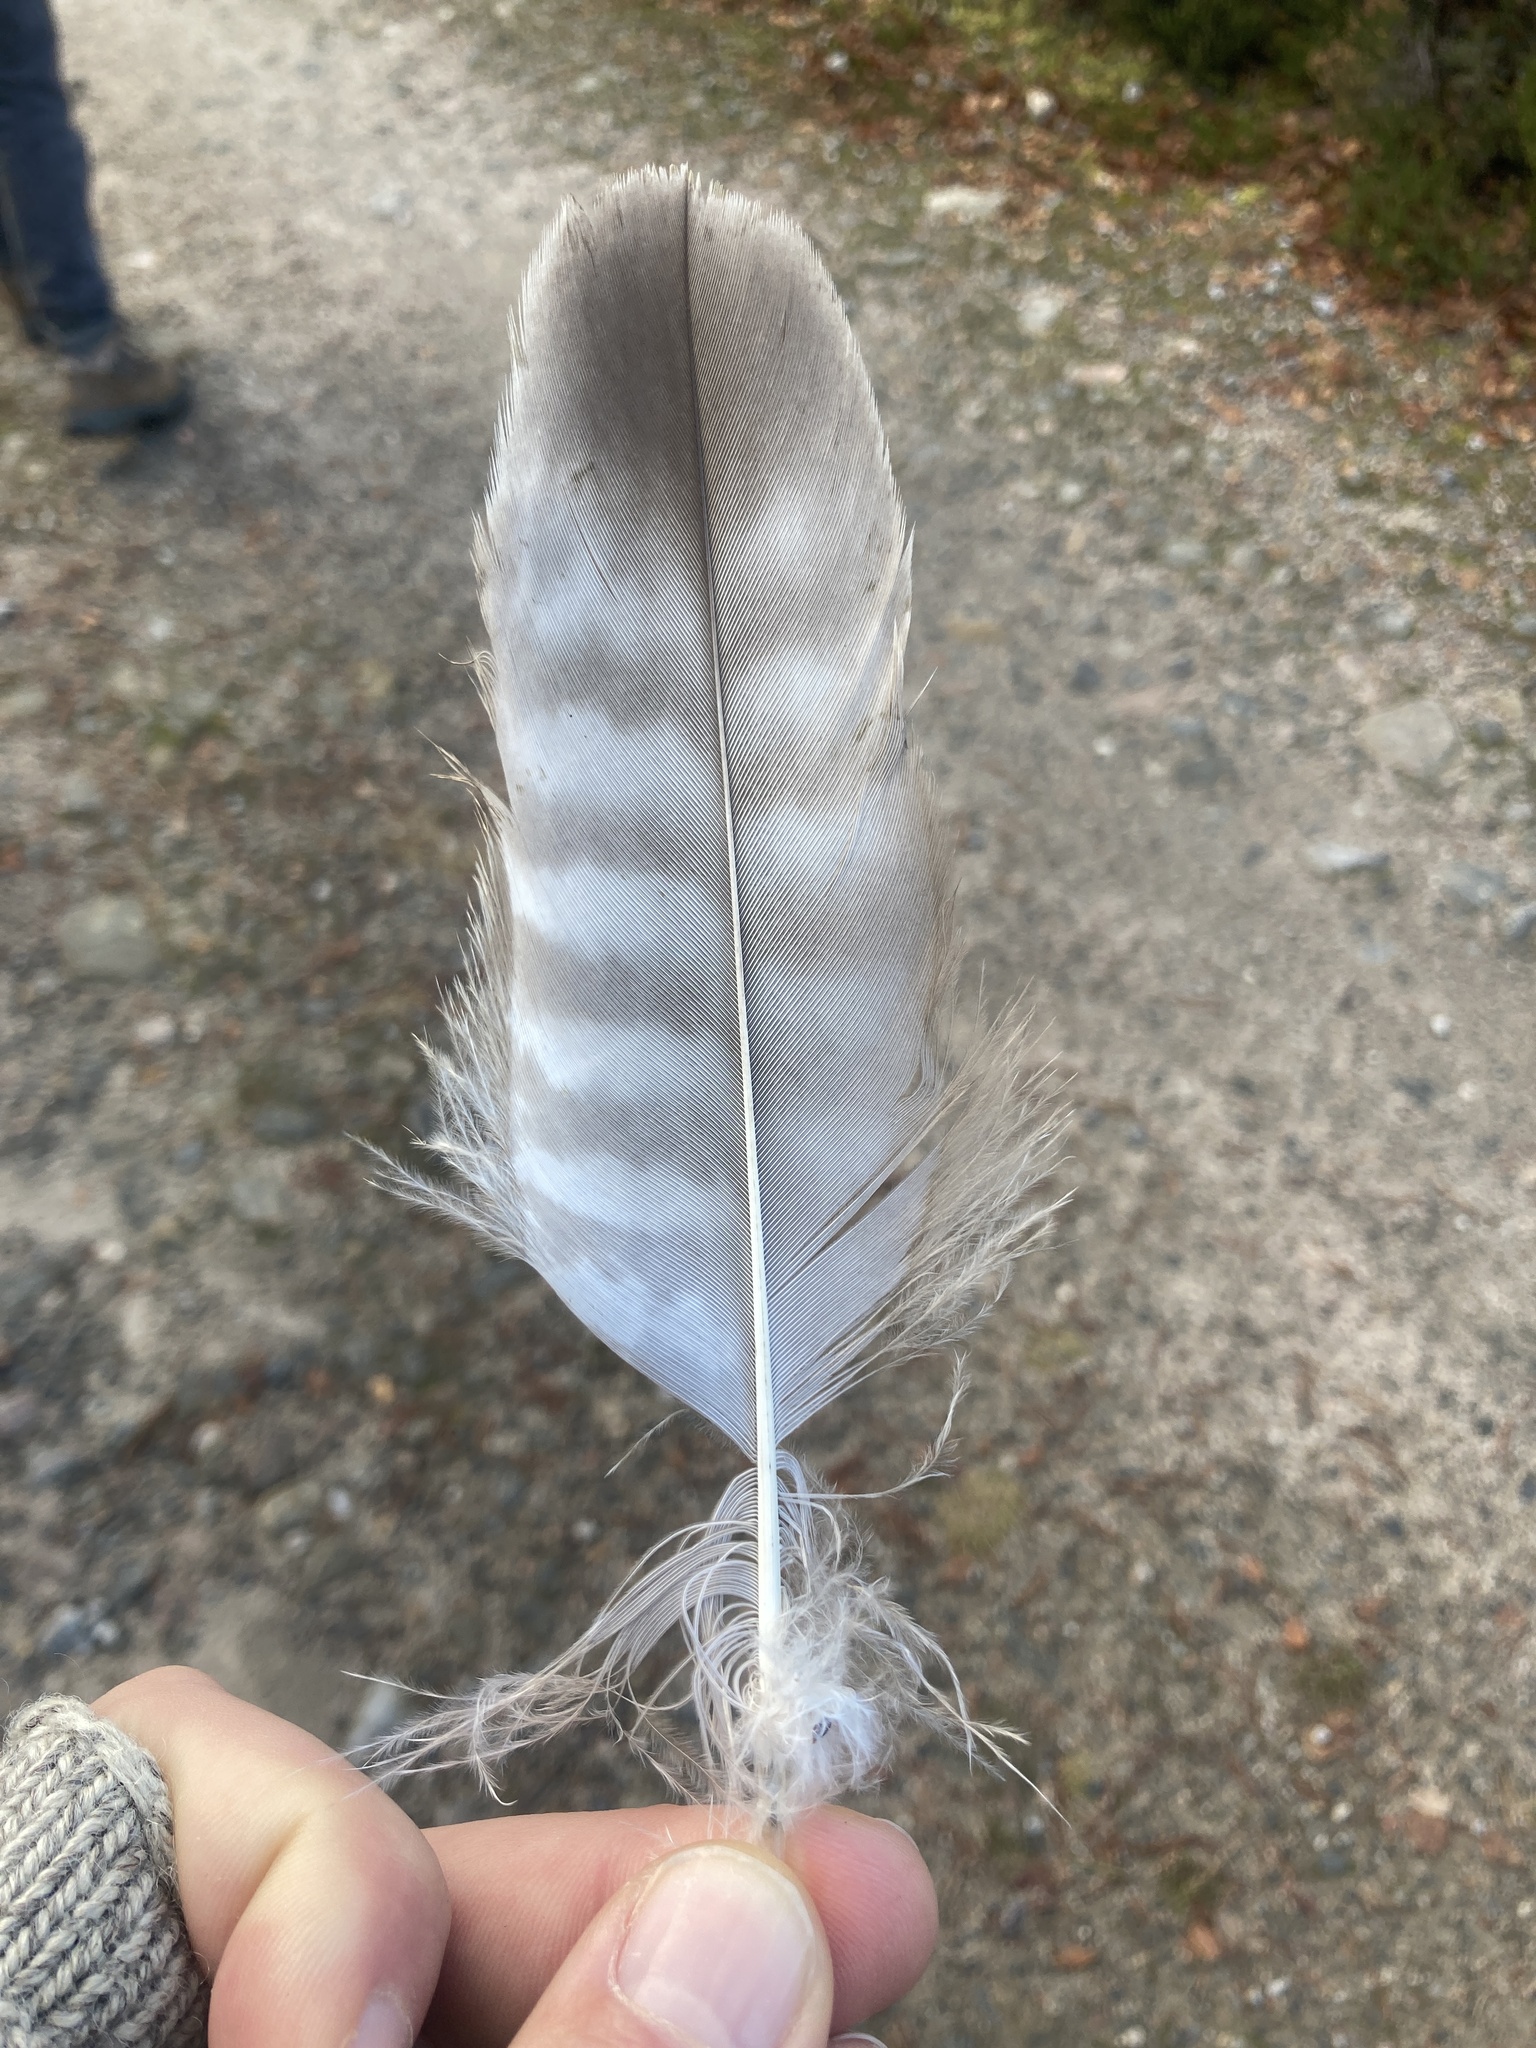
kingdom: Animalia
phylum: Chordata
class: Aves
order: Accipitriformes
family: Accipitridae
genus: Buteo
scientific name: Buteo buteo
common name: Common buzzard
